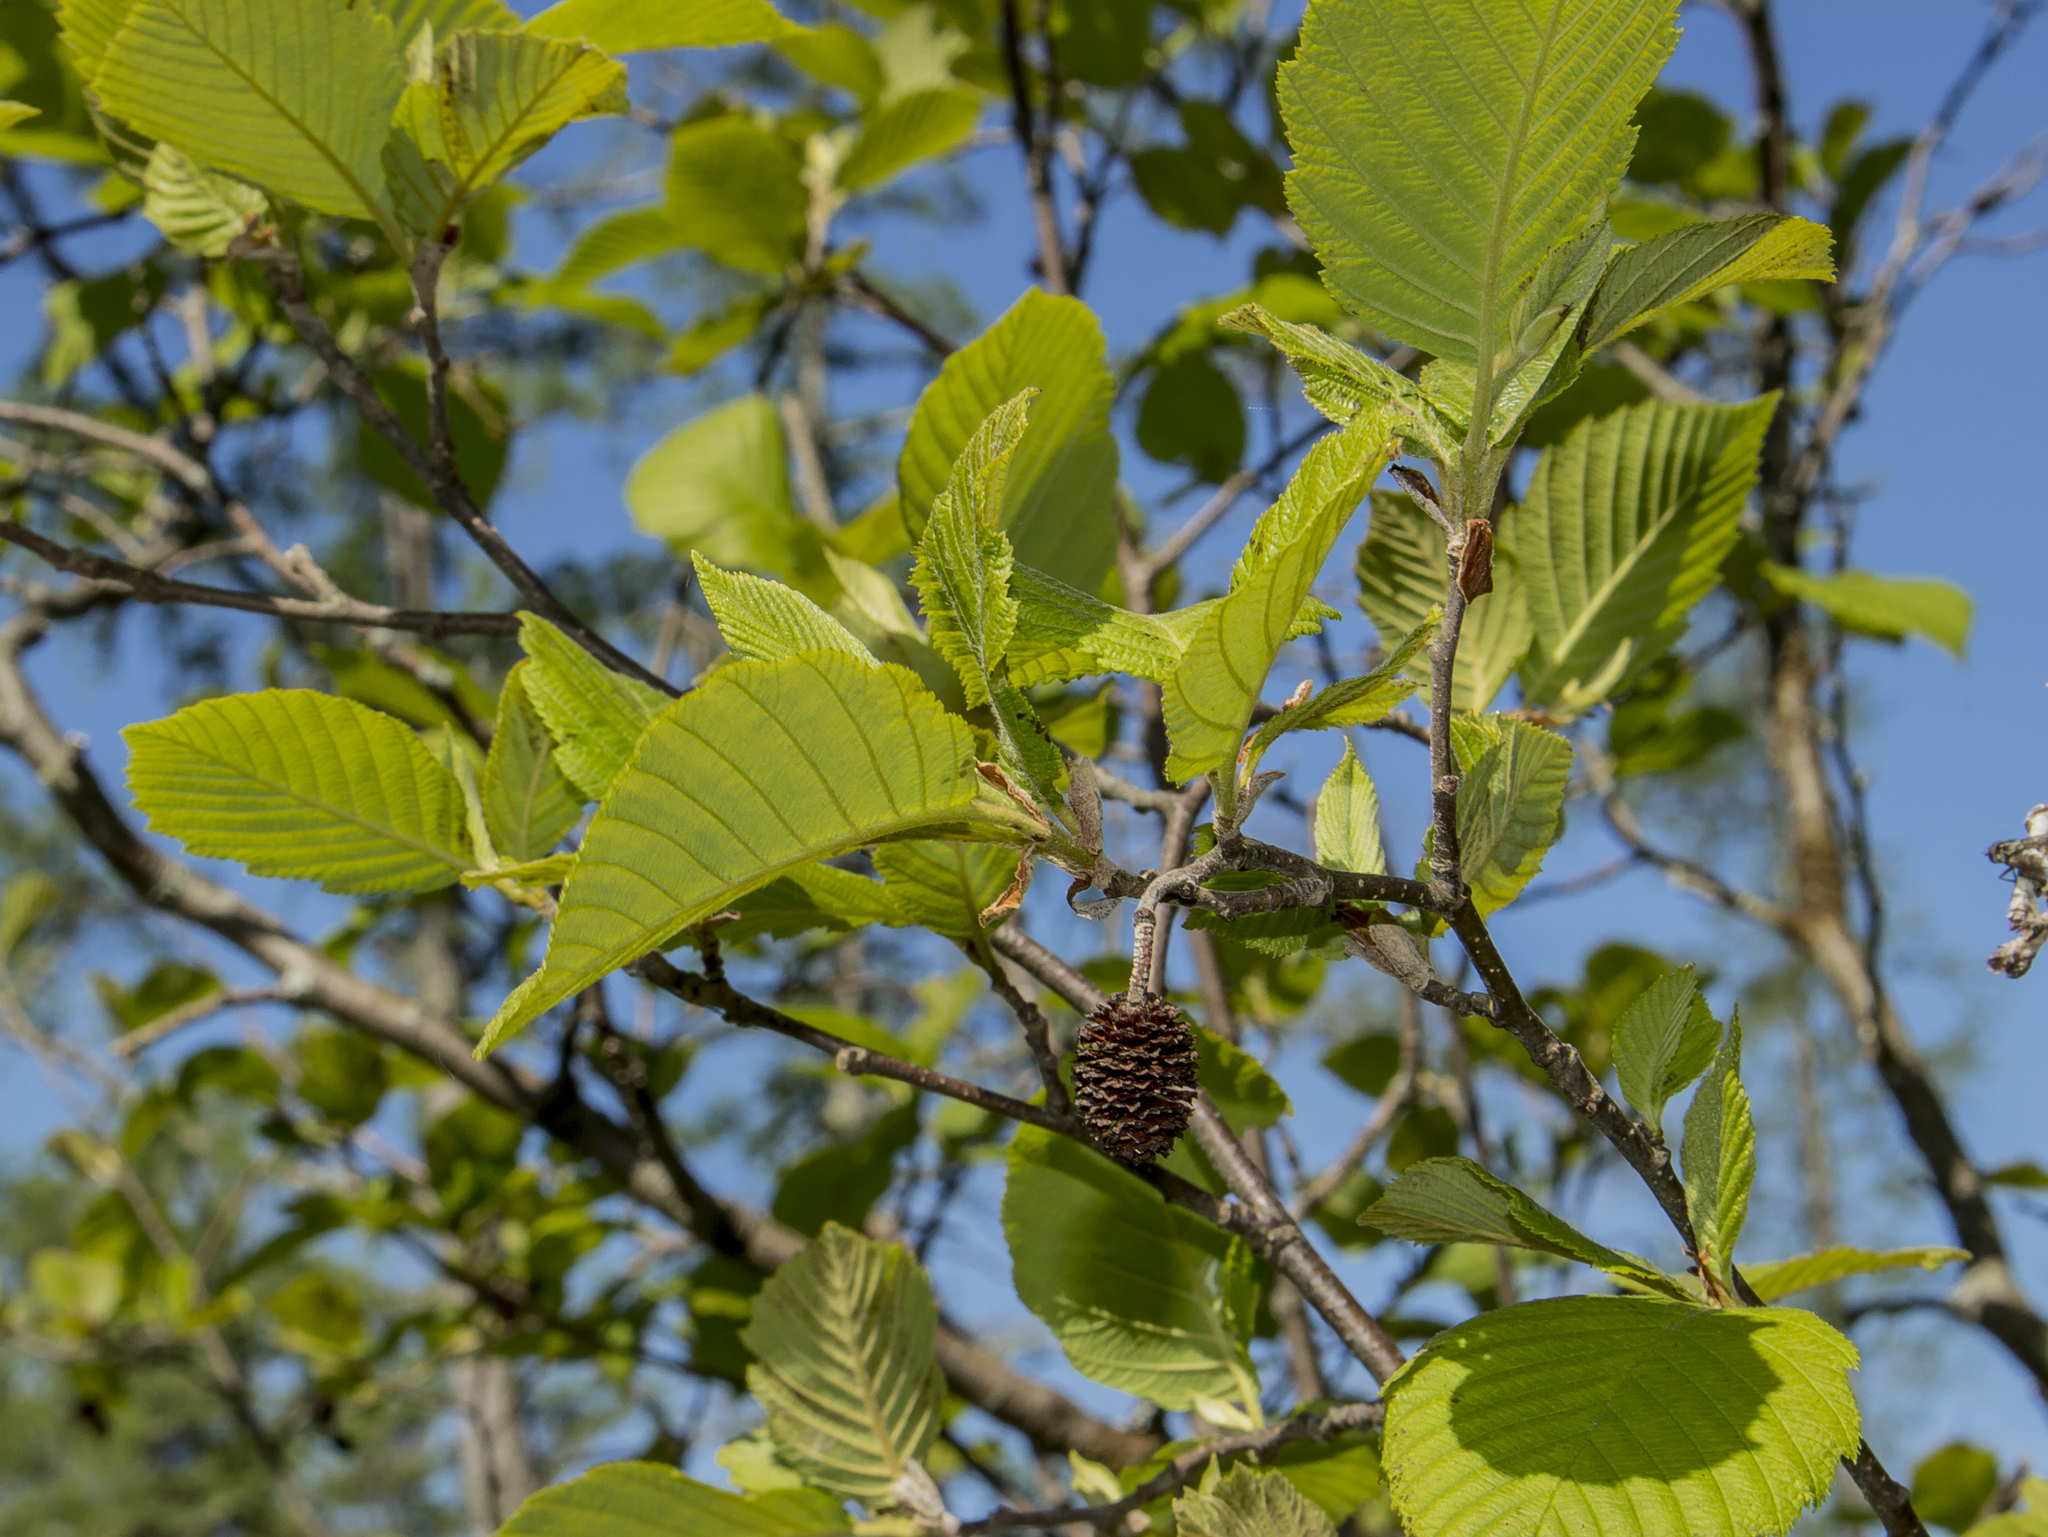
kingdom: Plantae
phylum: Tracheophyta
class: Magnoliopsida
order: Fagales
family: Betulaceae
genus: Alnus
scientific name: Alnus incana
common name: Grey alder
